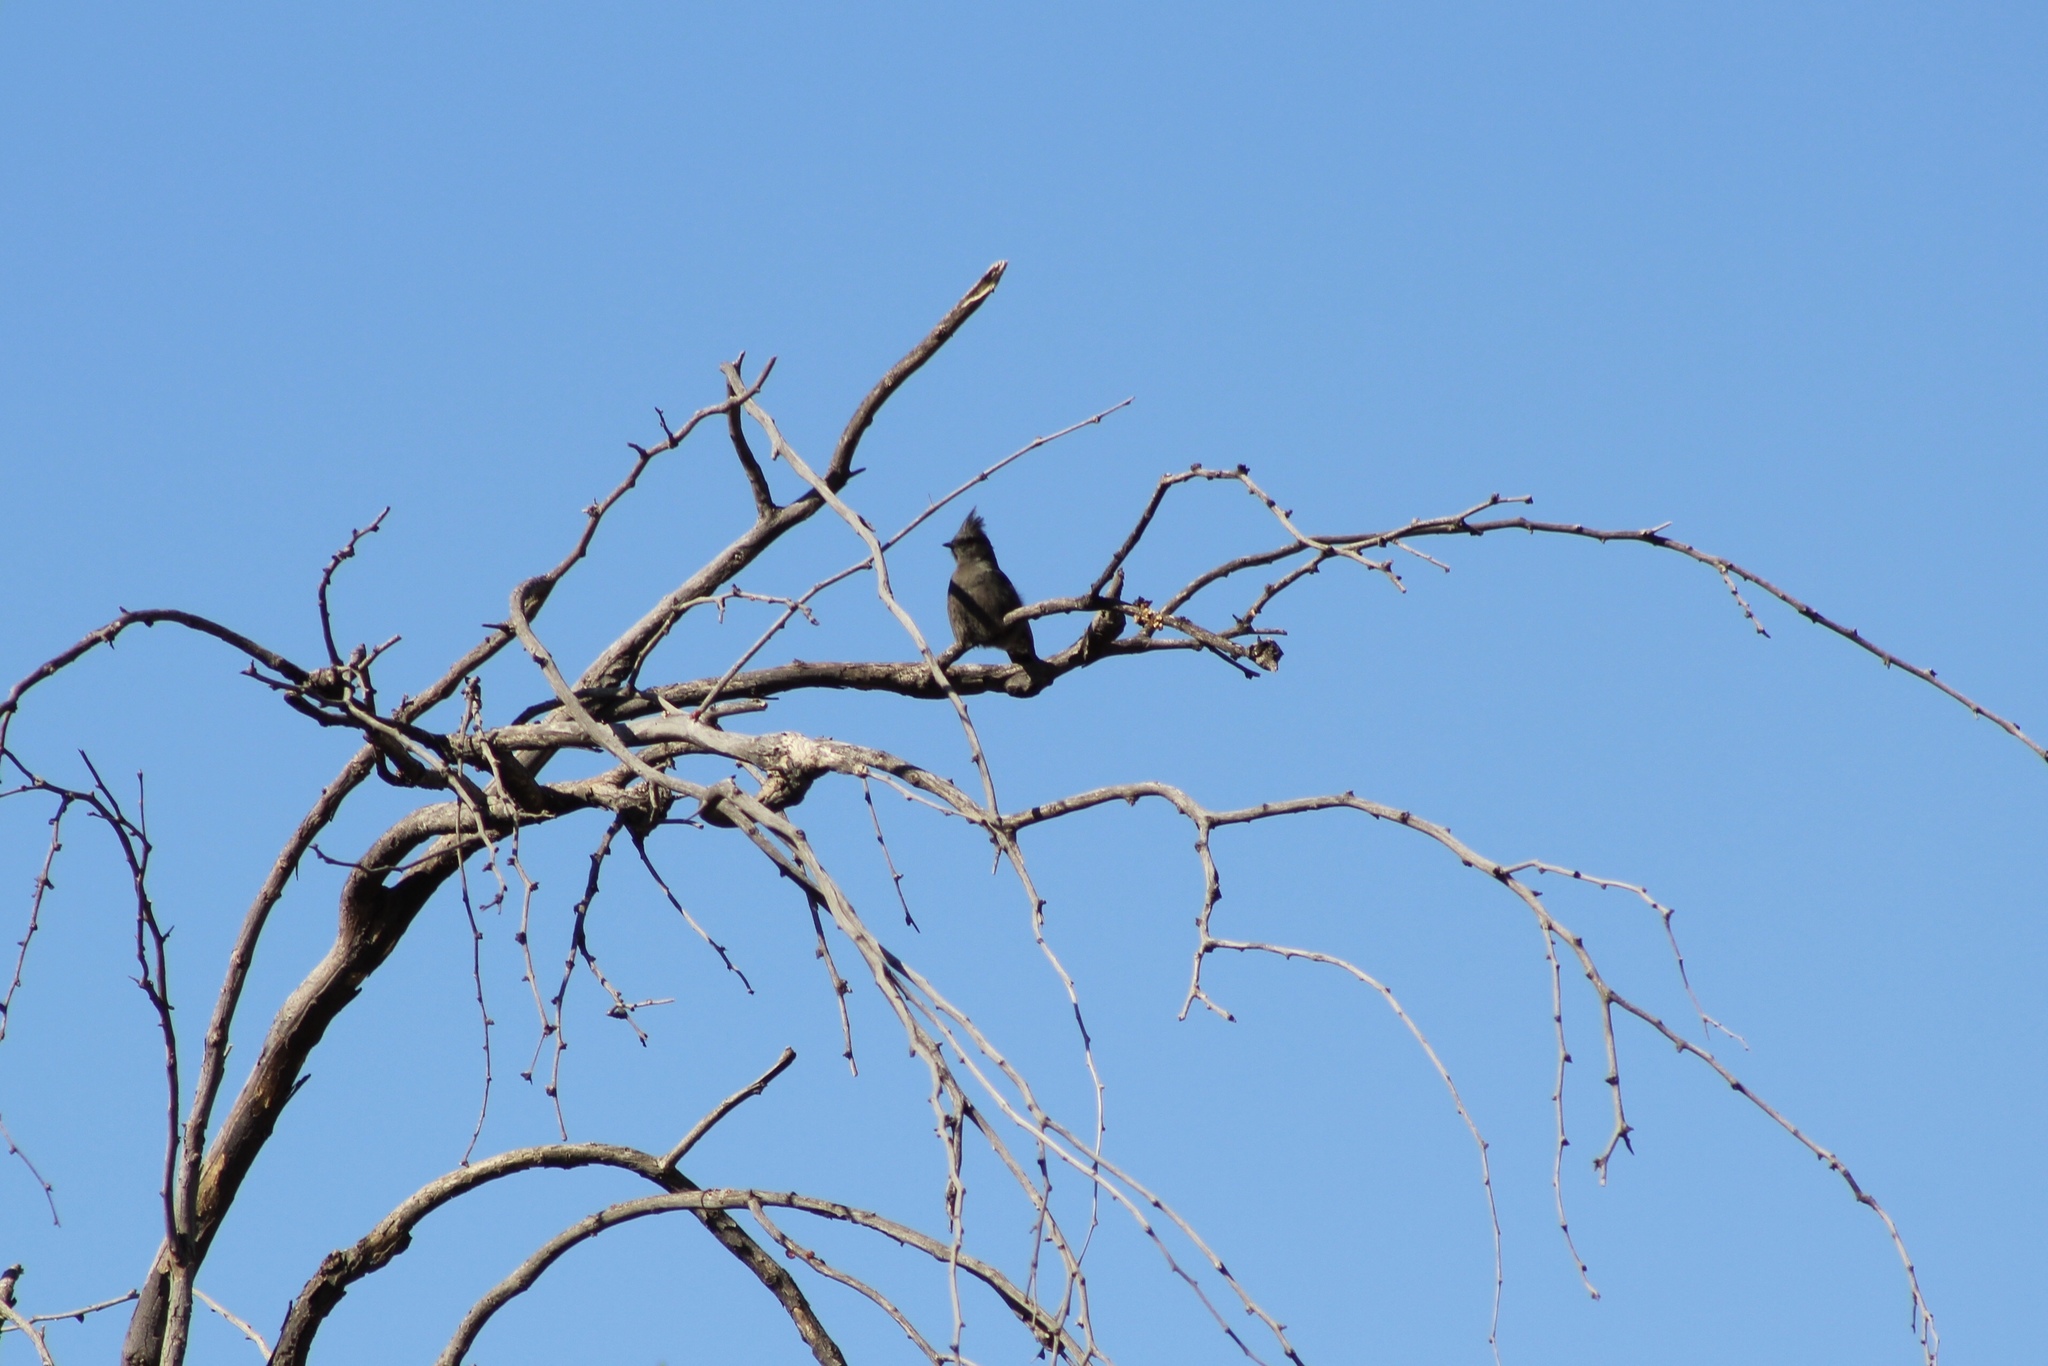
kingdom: Animalia
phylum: Chordata
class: Aves
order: Passeriformes
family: Ptilogonatidae
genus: Phainopepla
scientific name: Phainopepla nitens
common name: Phainopepla
